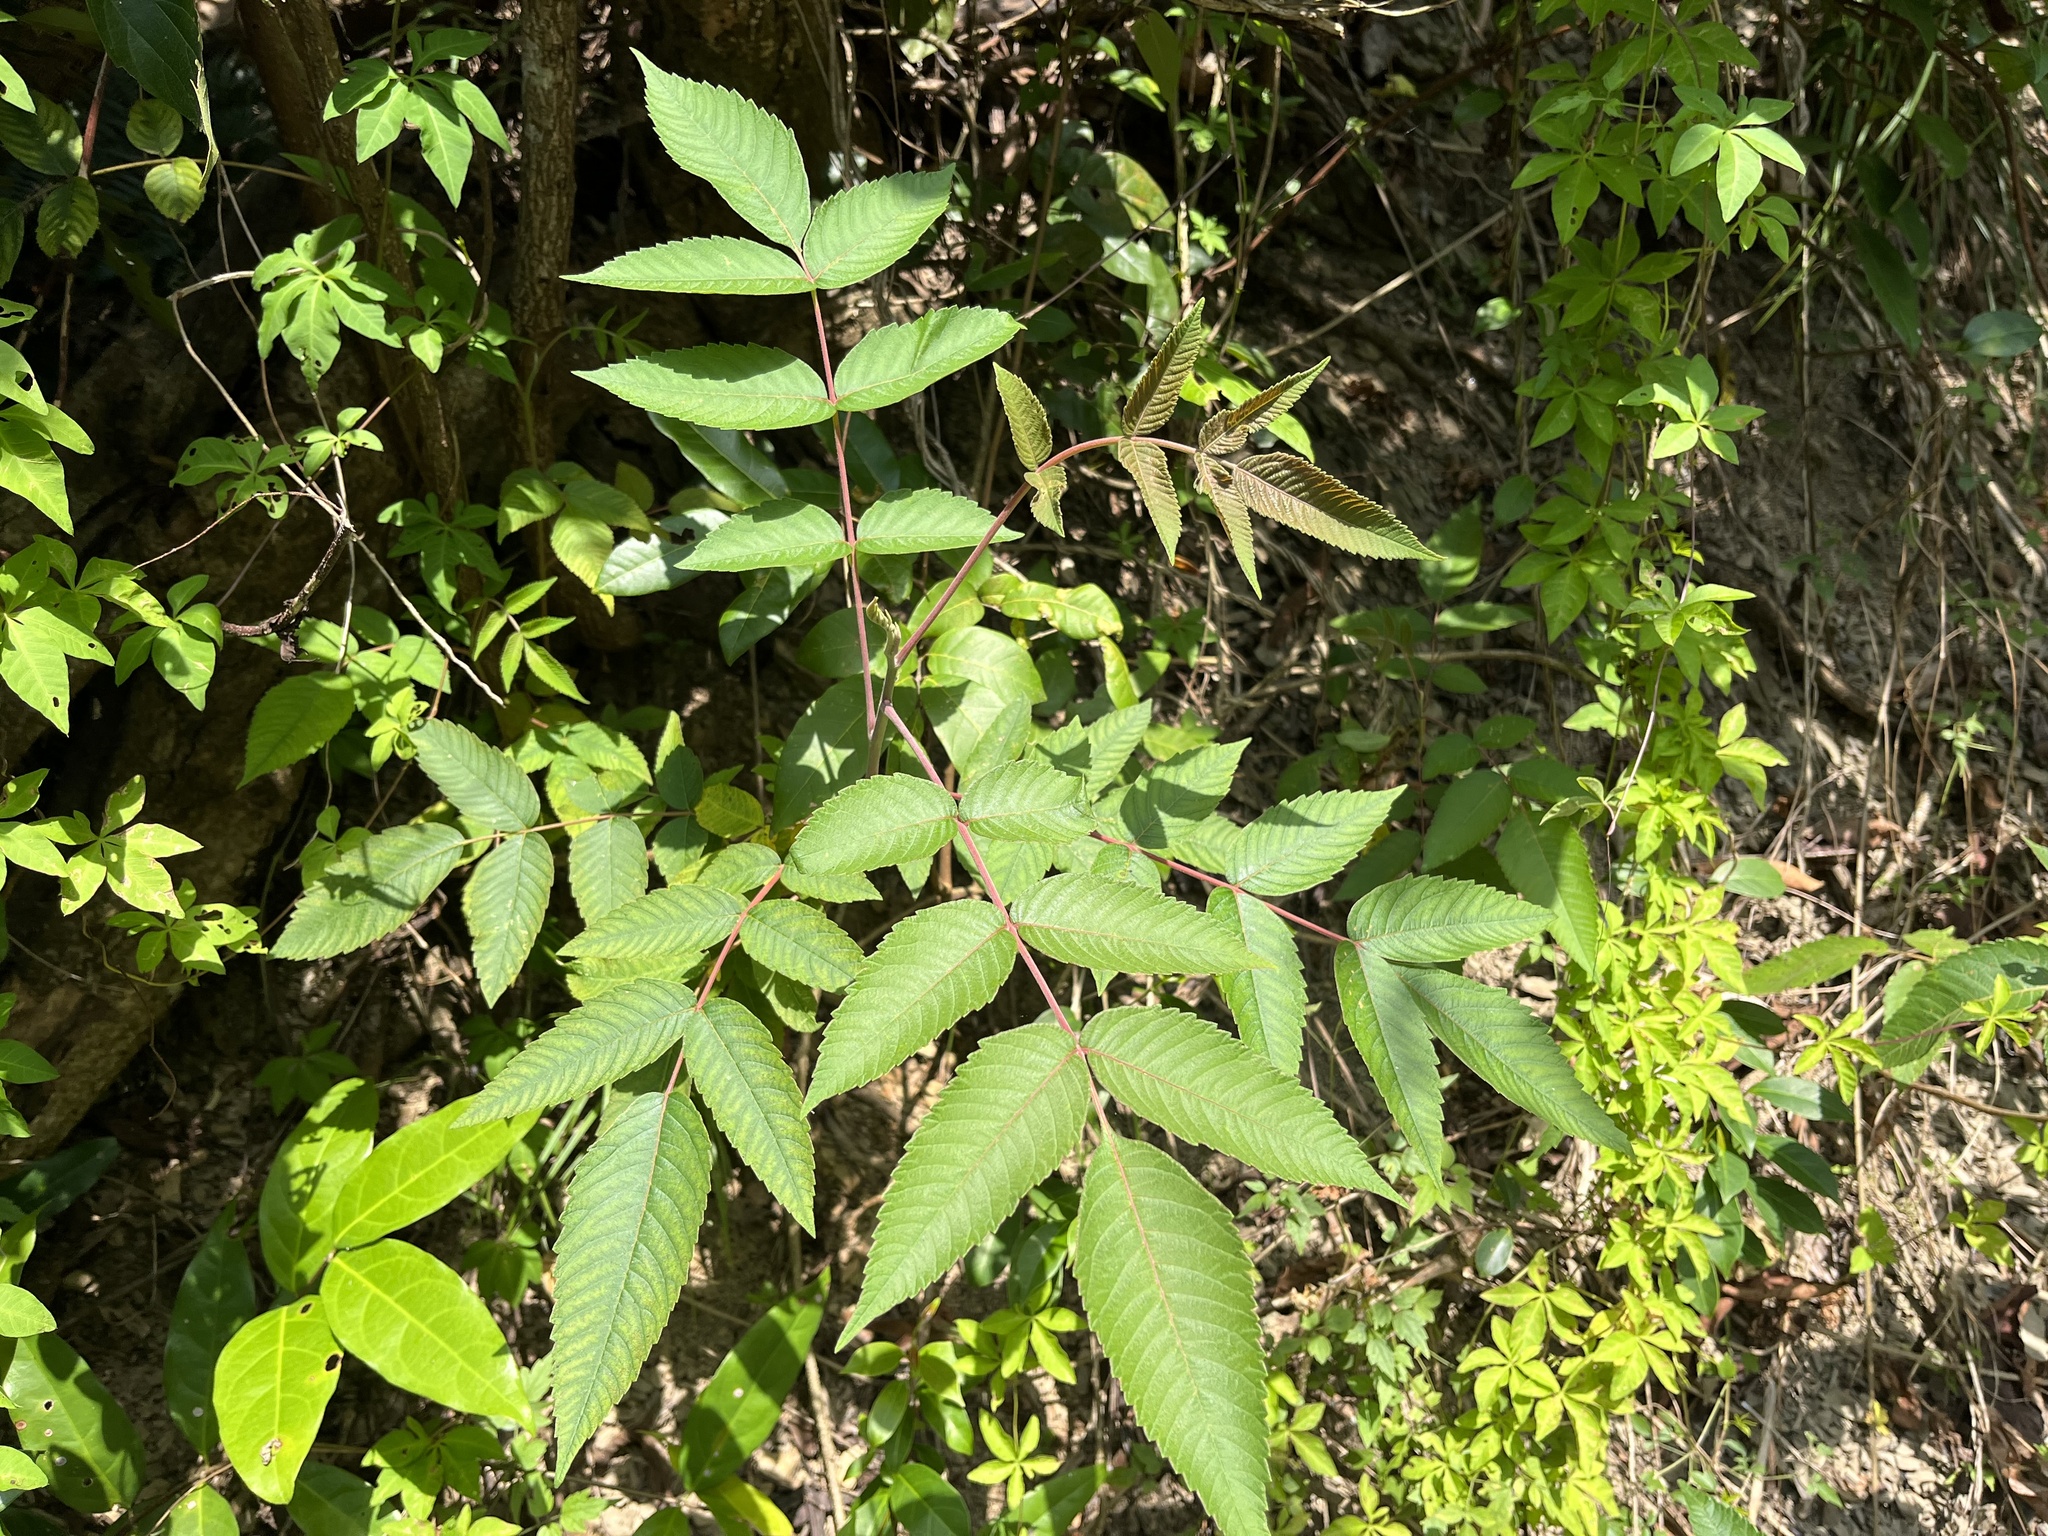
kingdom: Plantae
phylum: Tracheophyta
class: Magnoliopsida
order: Sapindales
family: Anacardiaceae
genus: Rhus
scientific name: Rhus chinensis
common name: Chinese gall
